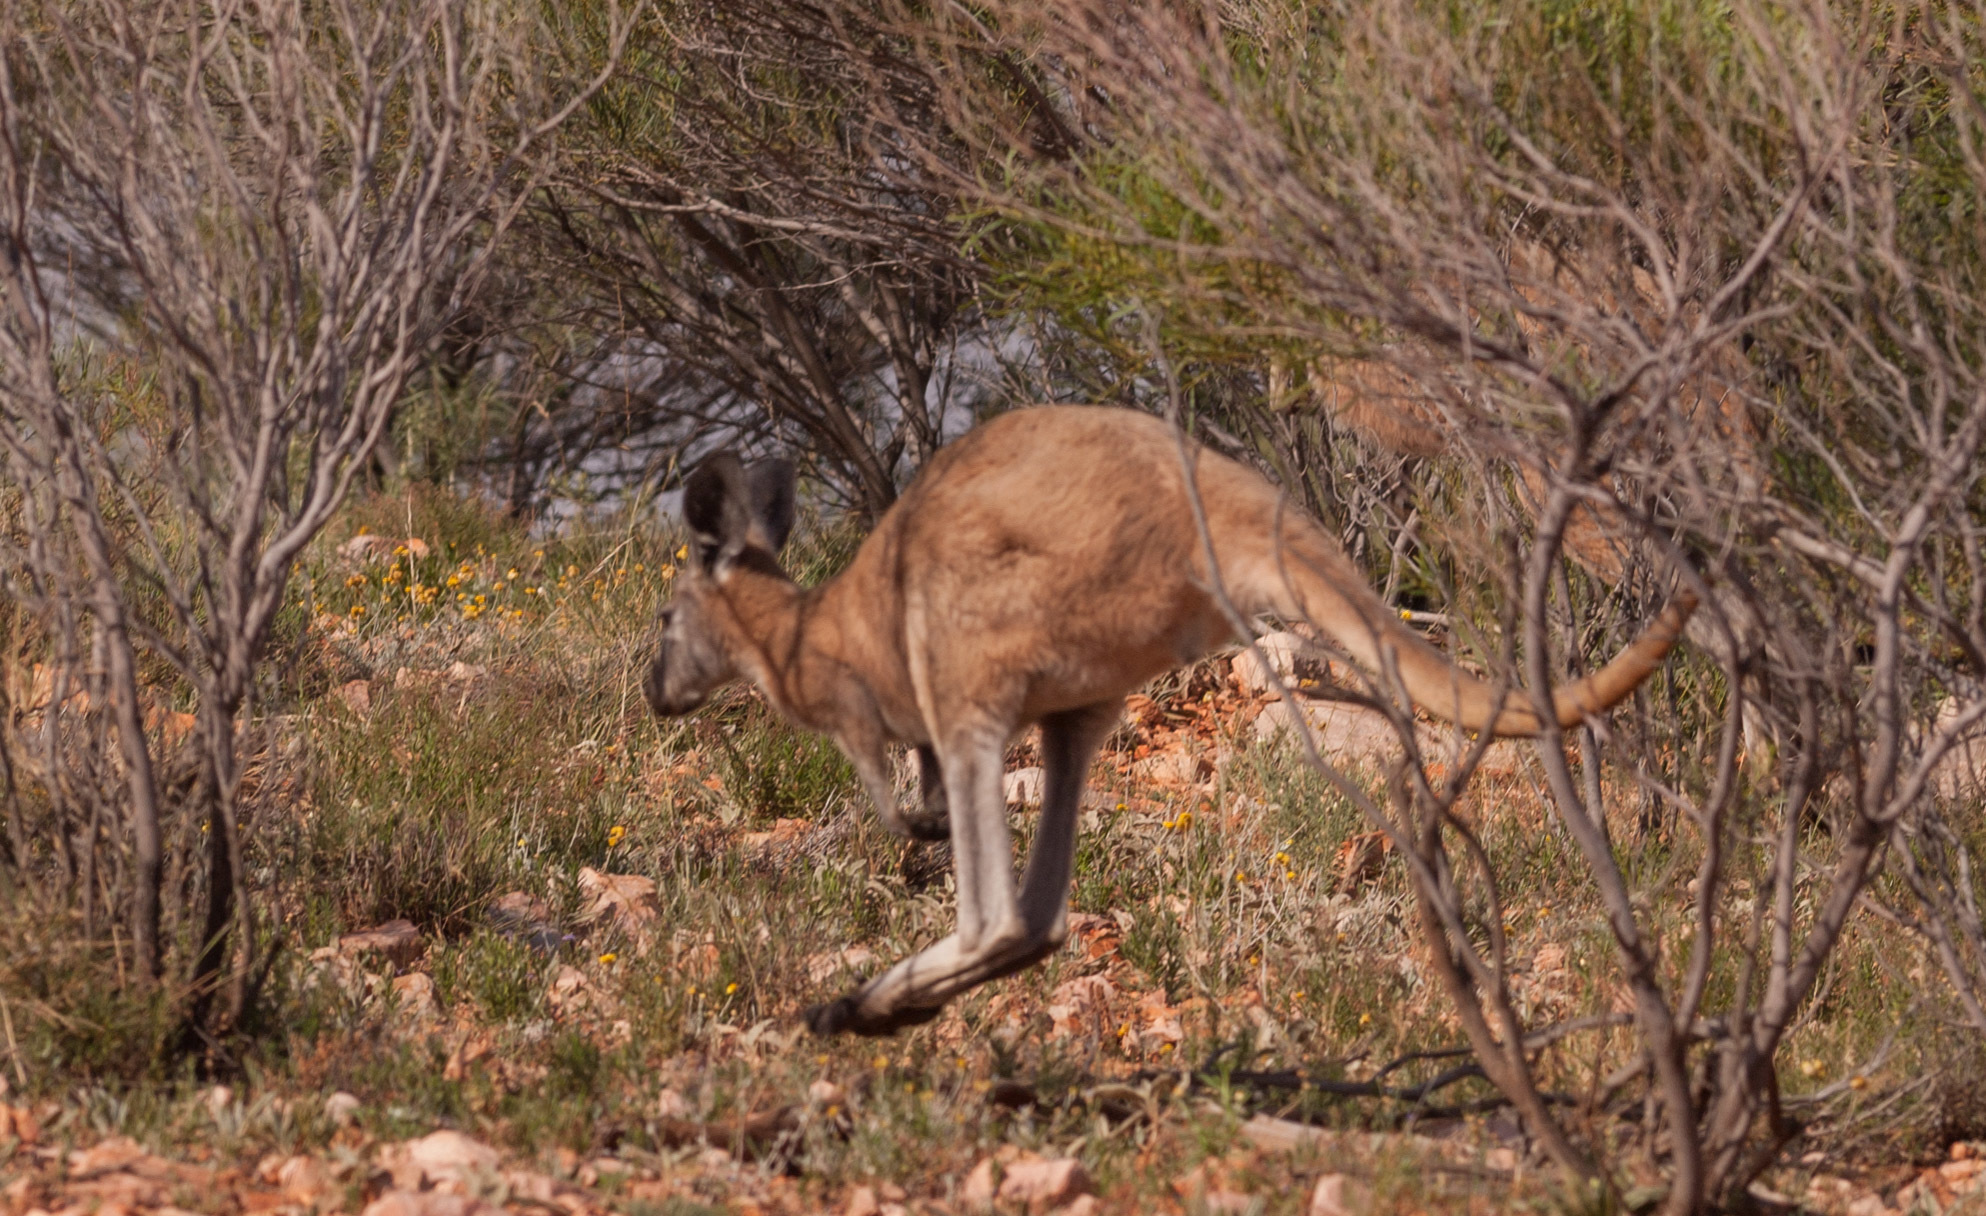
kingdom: Animalia
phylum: Chordata
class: Mammalia
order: Diprotodontia
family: Macropodidae
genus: Macropus
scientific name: Macropus robustus
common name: Eastern wallaroo
